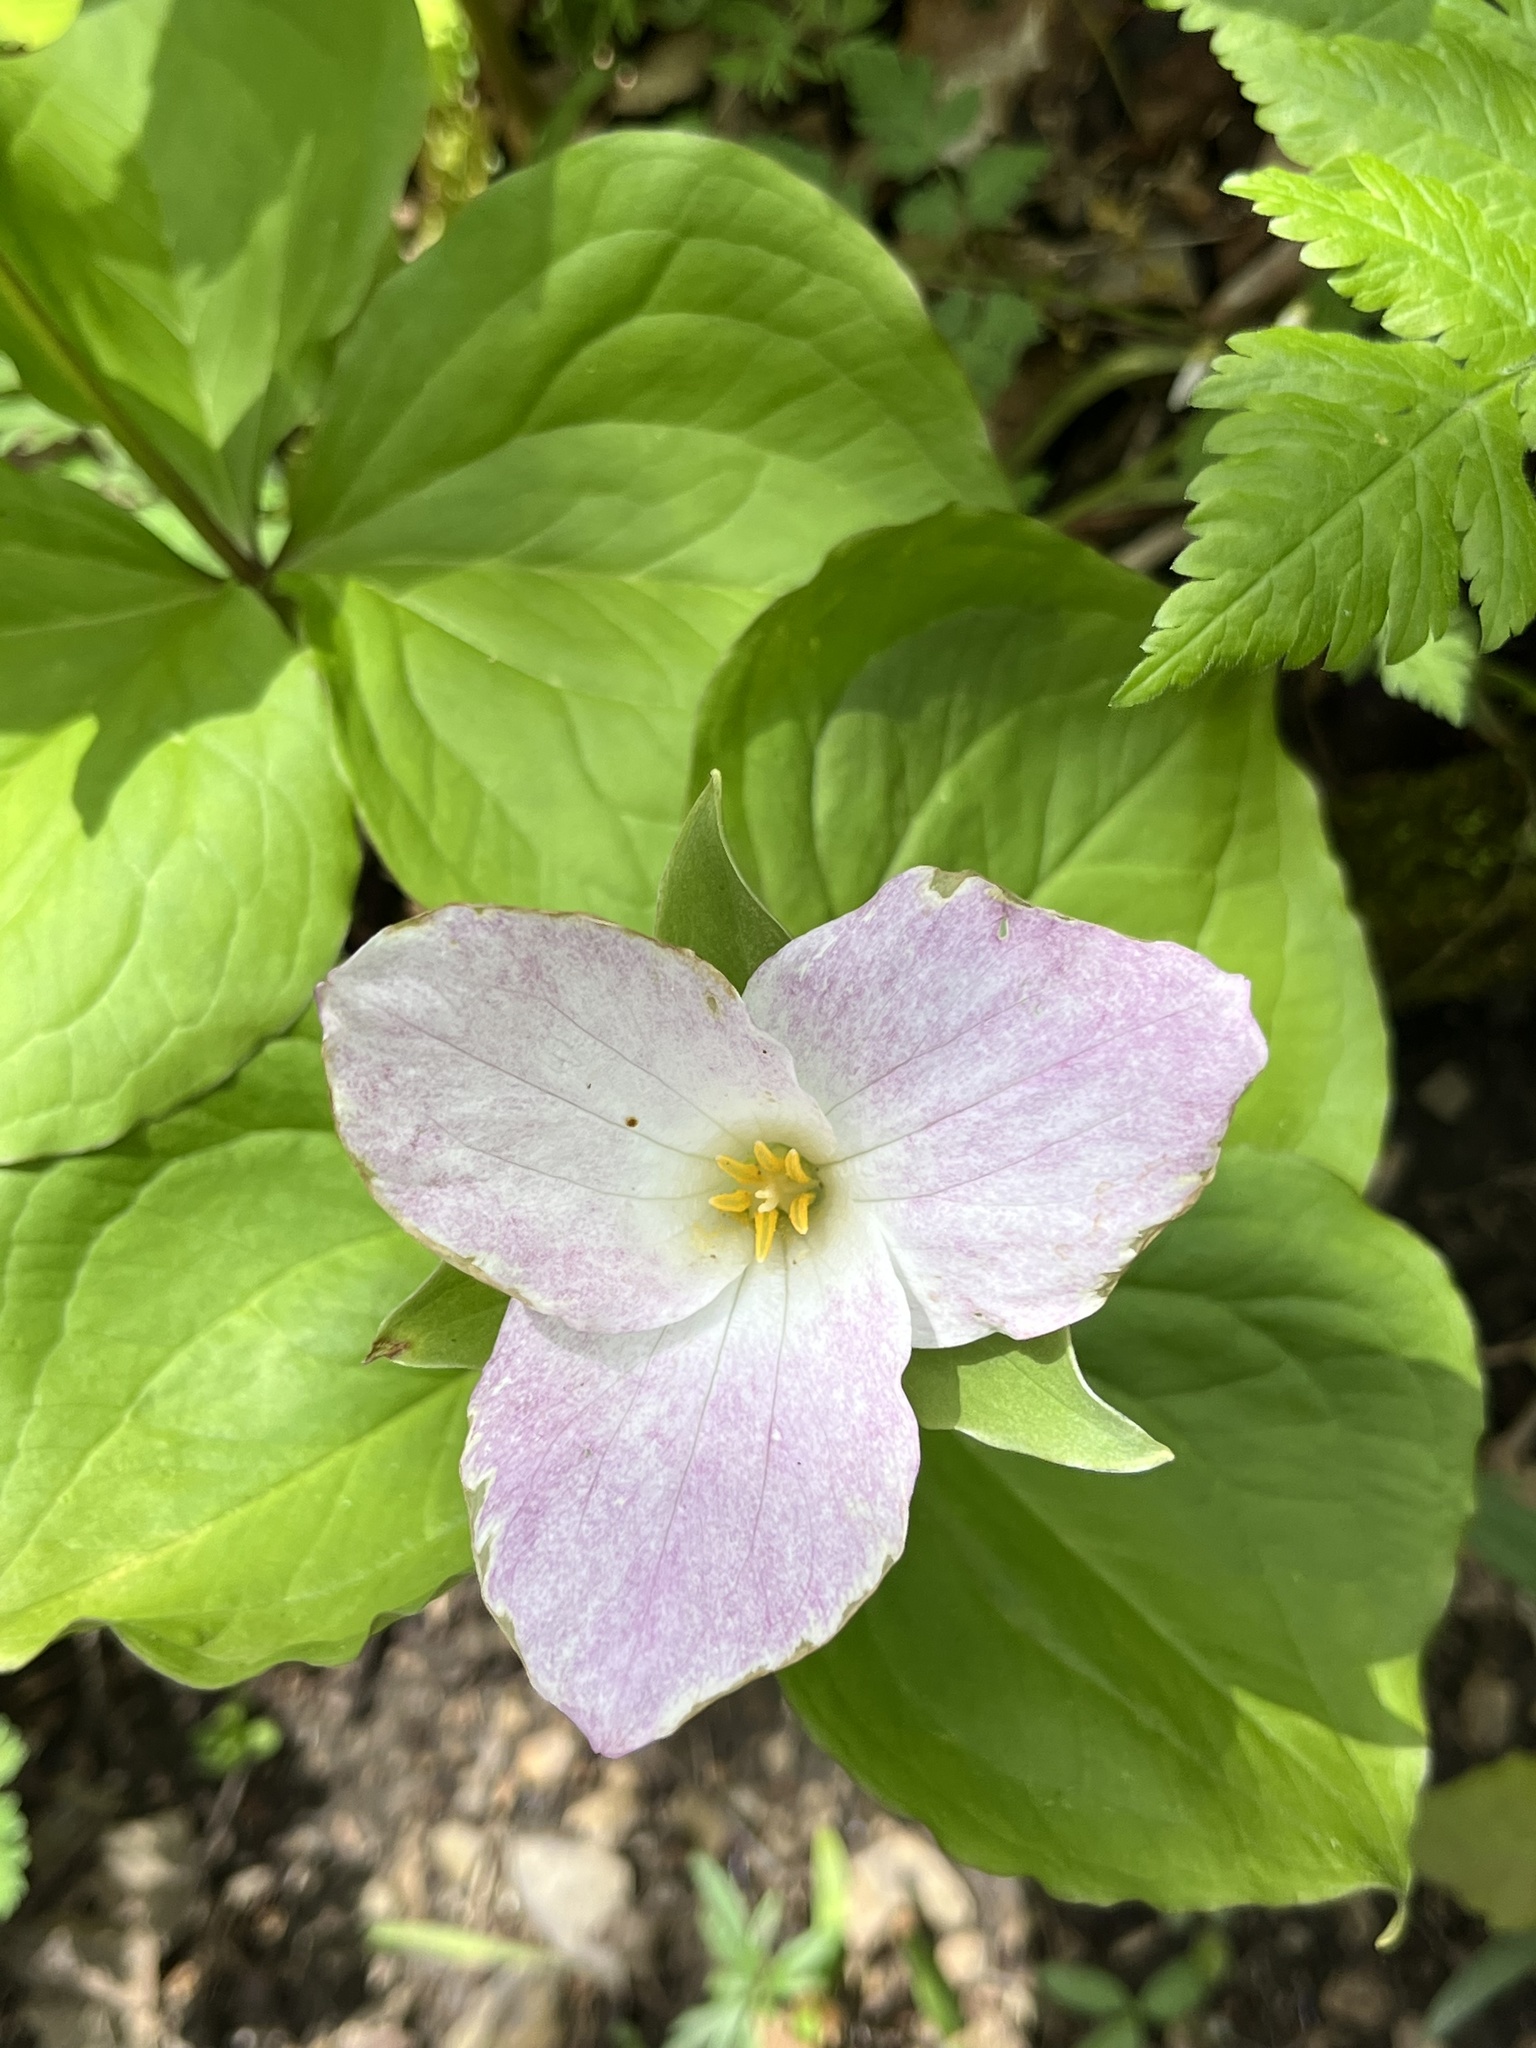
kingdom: Plantae
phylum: Tracheophyta
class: Liliopsida
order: Liliales
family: Melanthiaceae
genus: Trillium
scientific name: Trillium grandiflorum
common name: Great white trillium
